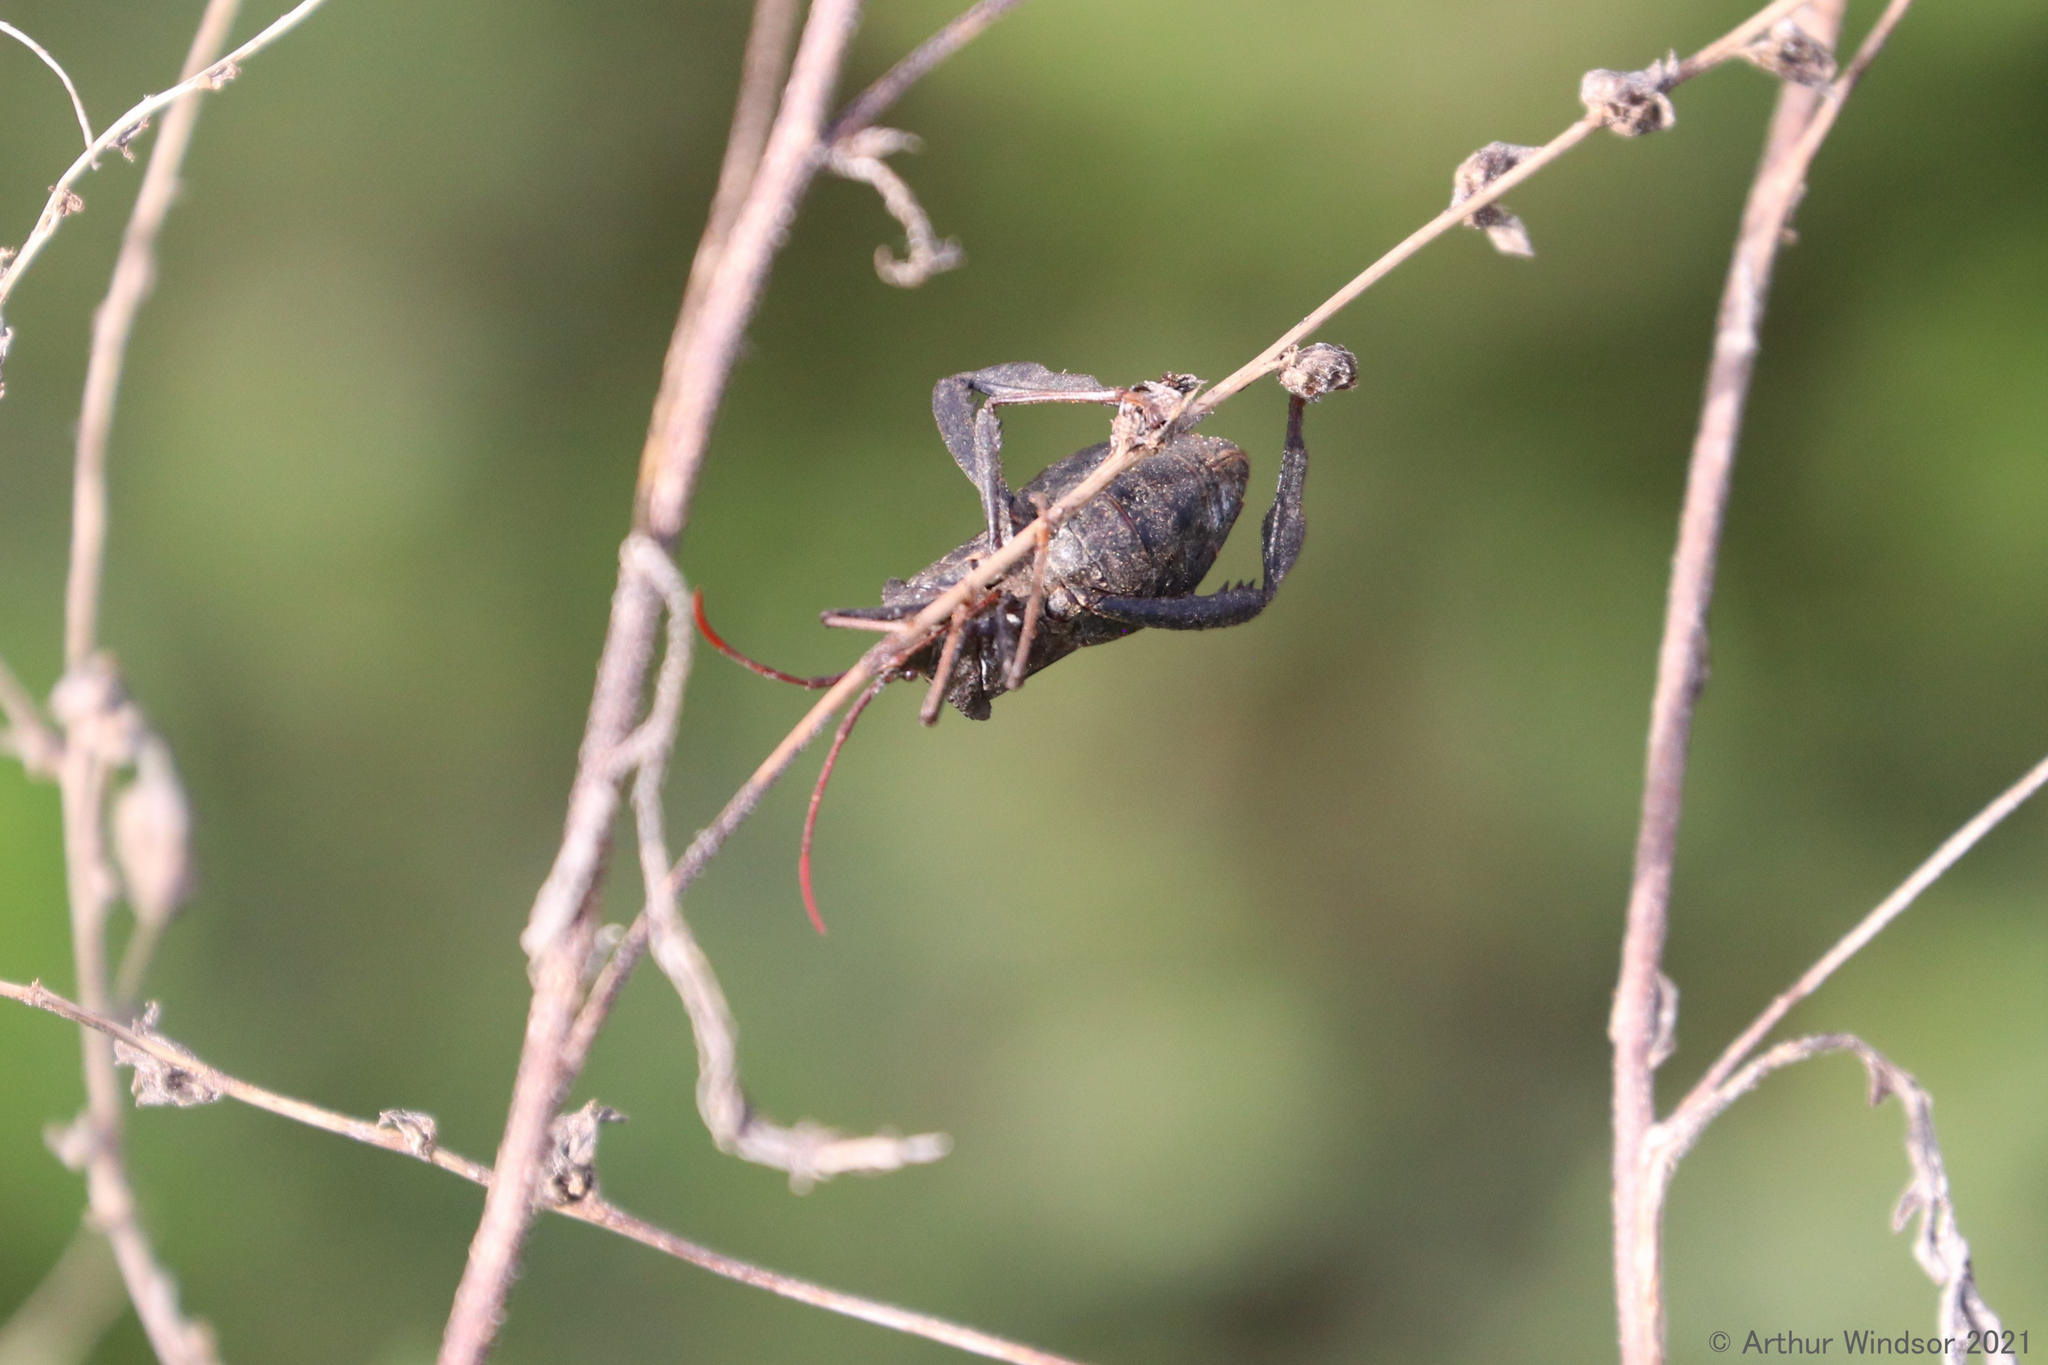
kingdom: Animalia
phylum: Arthropoda
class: Insecta
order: Hemiptera
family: Coreidae
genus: Acanthocephala
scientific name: Acanthocephala femorata
